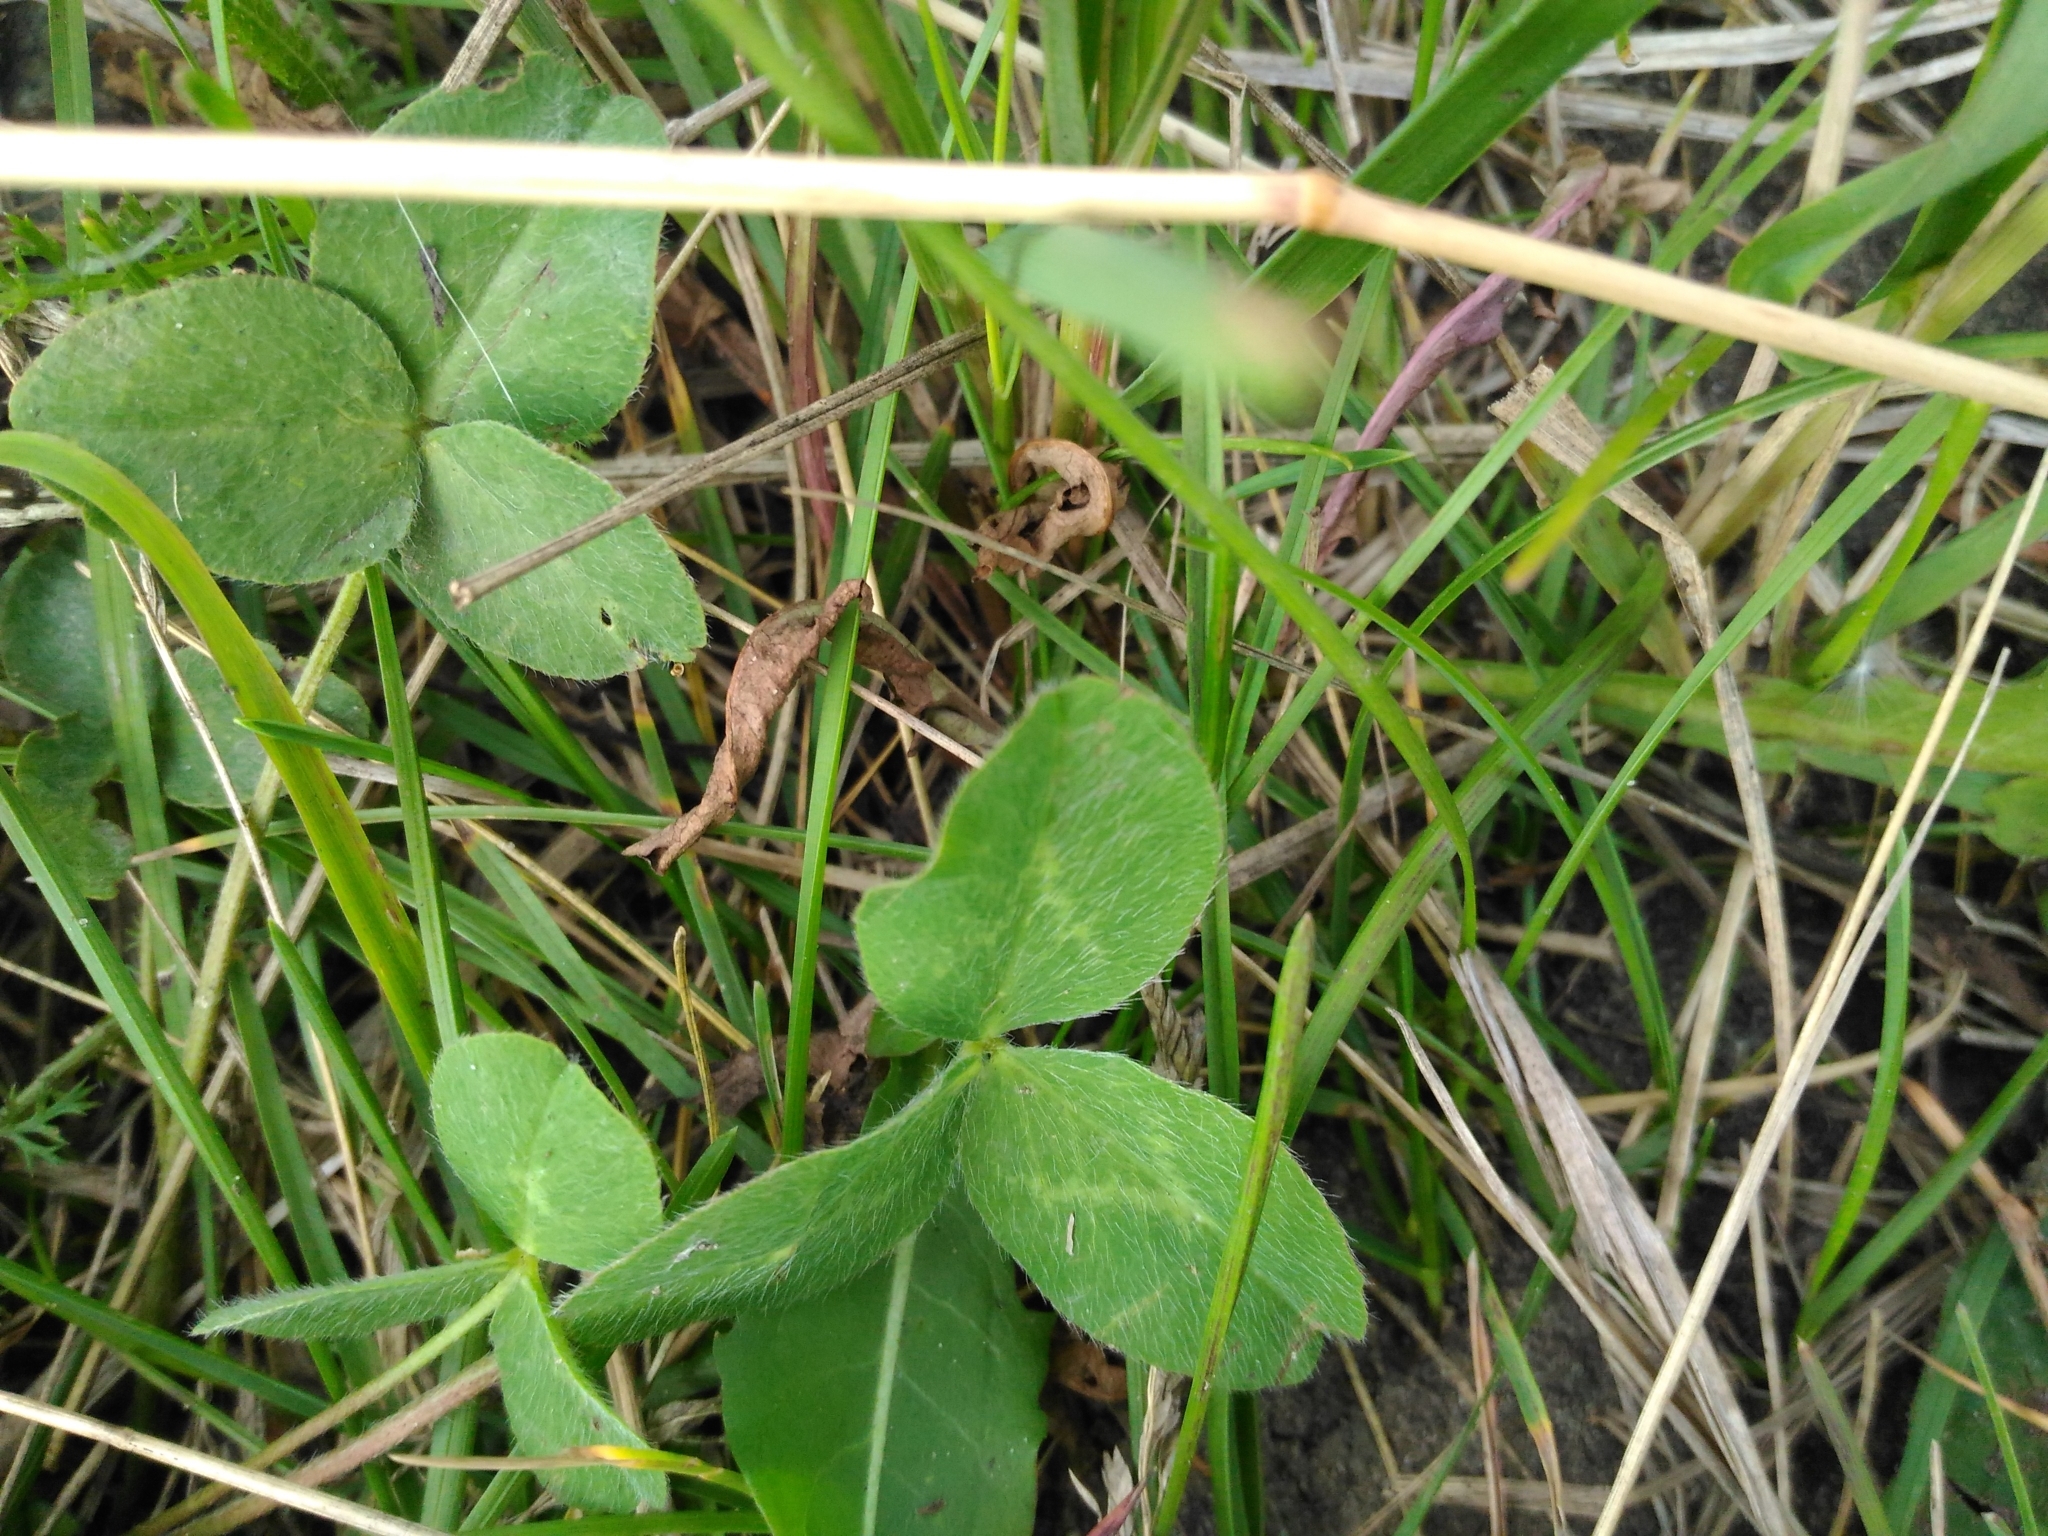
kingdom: Plantae
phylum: Tracheophyta
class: Magnoliopsida
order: Fabales
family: Fabaceae
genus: Trifolium
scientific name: Trifolium pratense
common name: Red clover
